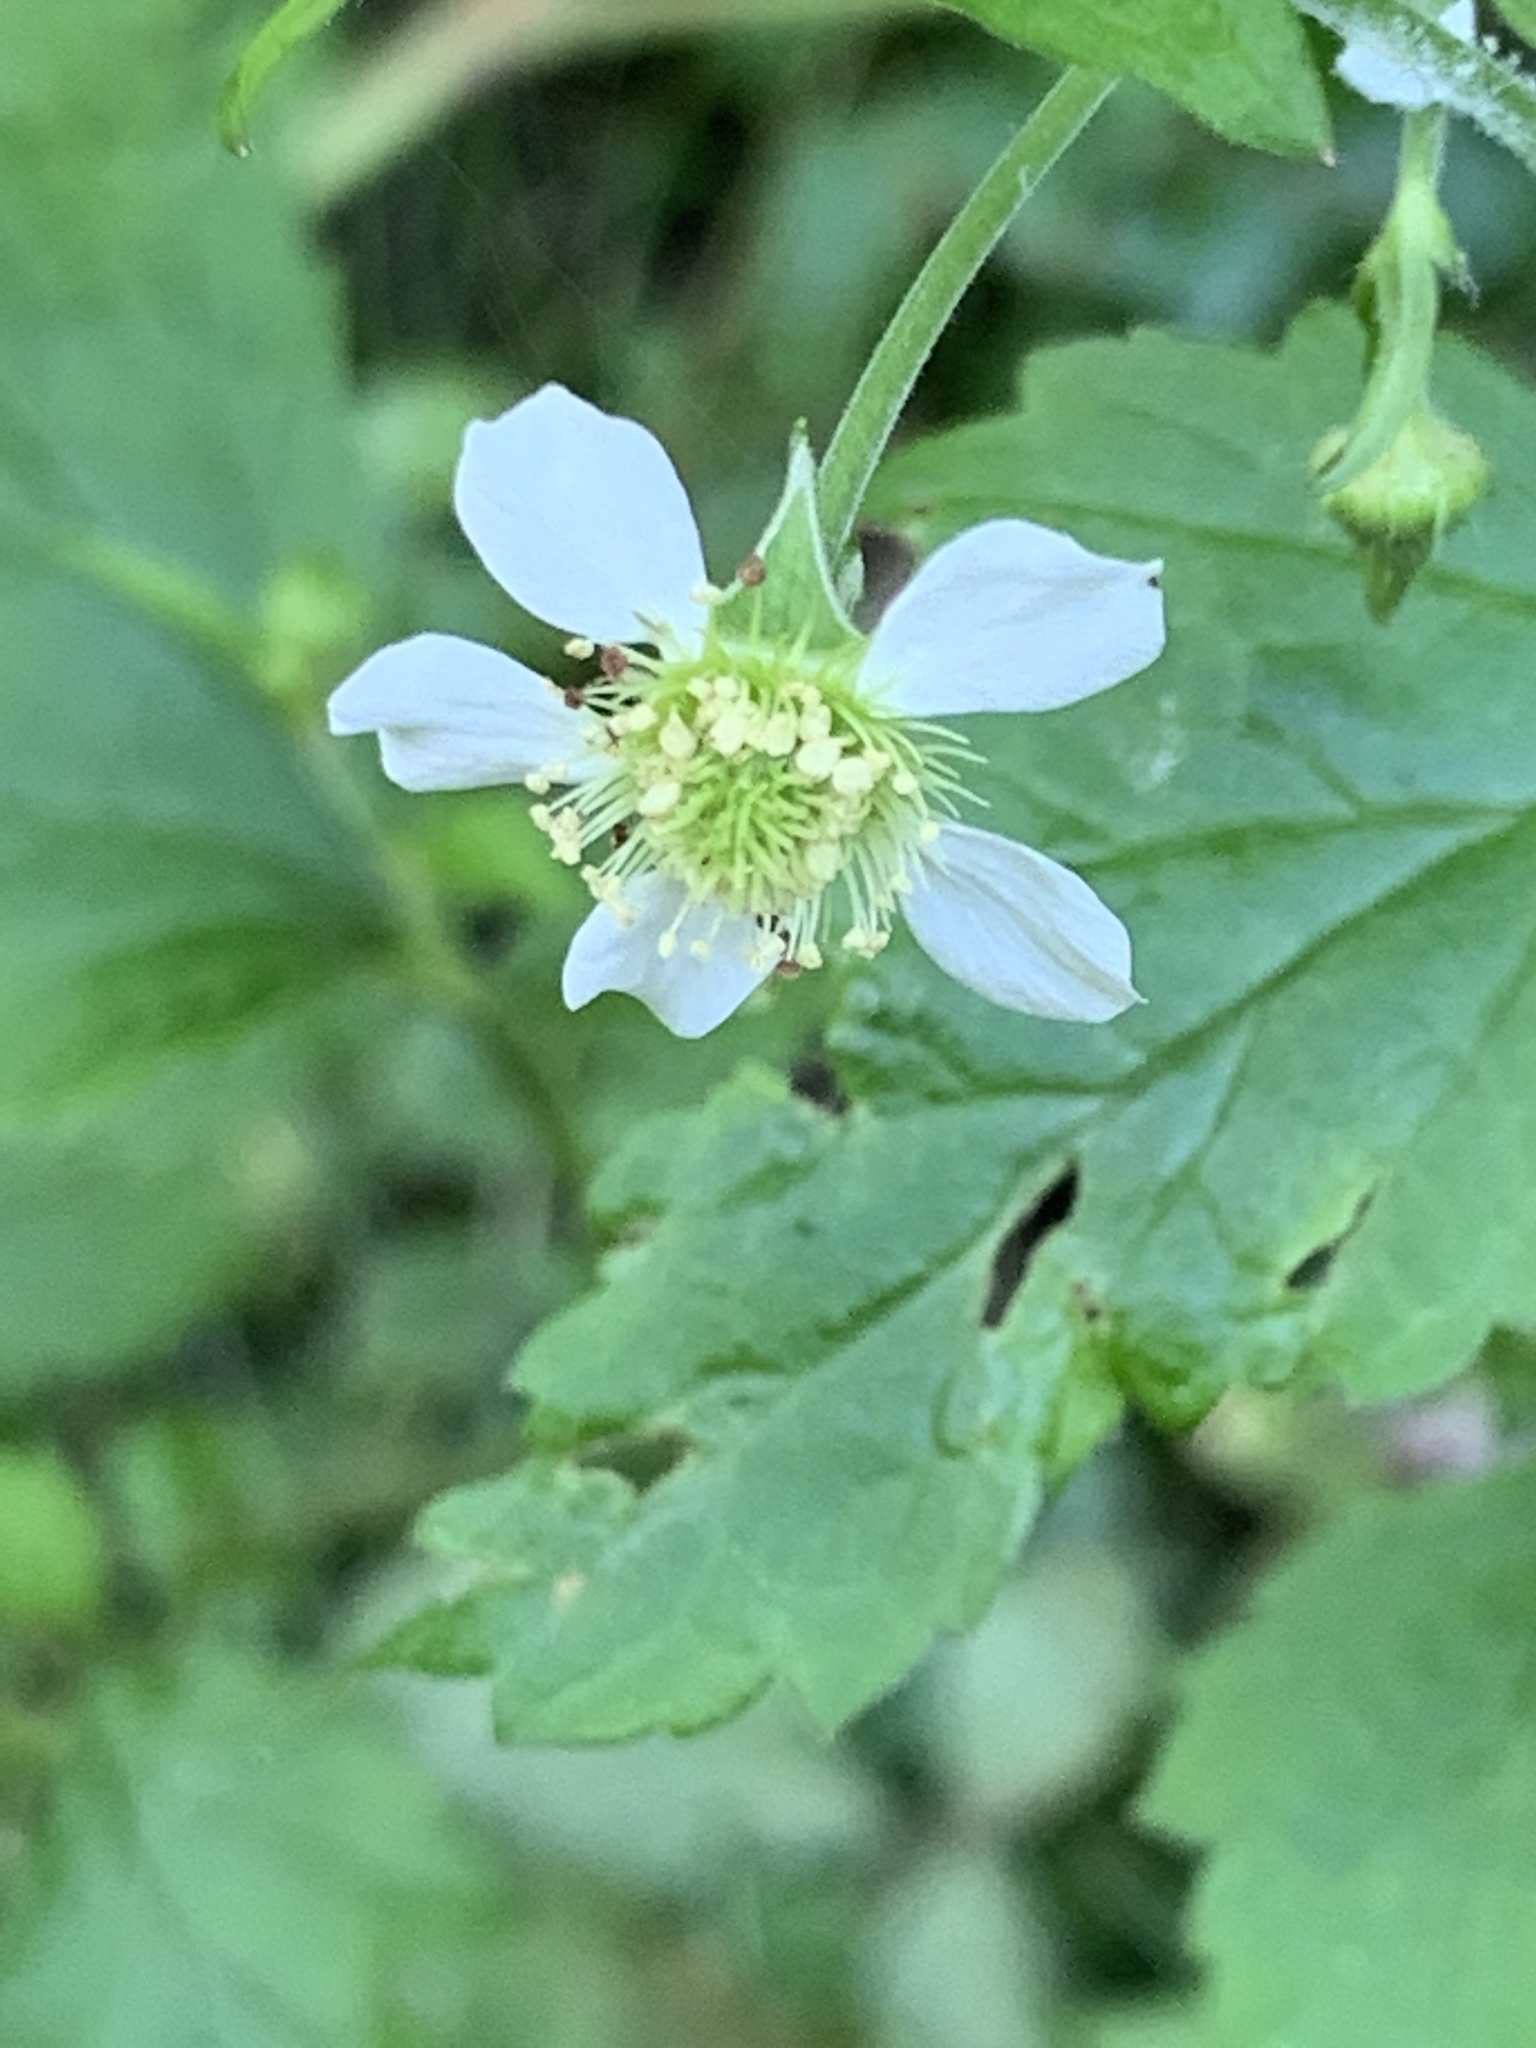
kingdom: Plantae
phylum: Tracheophyta
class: Magnoliopsida
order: Rosales
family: Rosaceae
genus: Geum
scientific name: Geum canadense
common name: White avens
